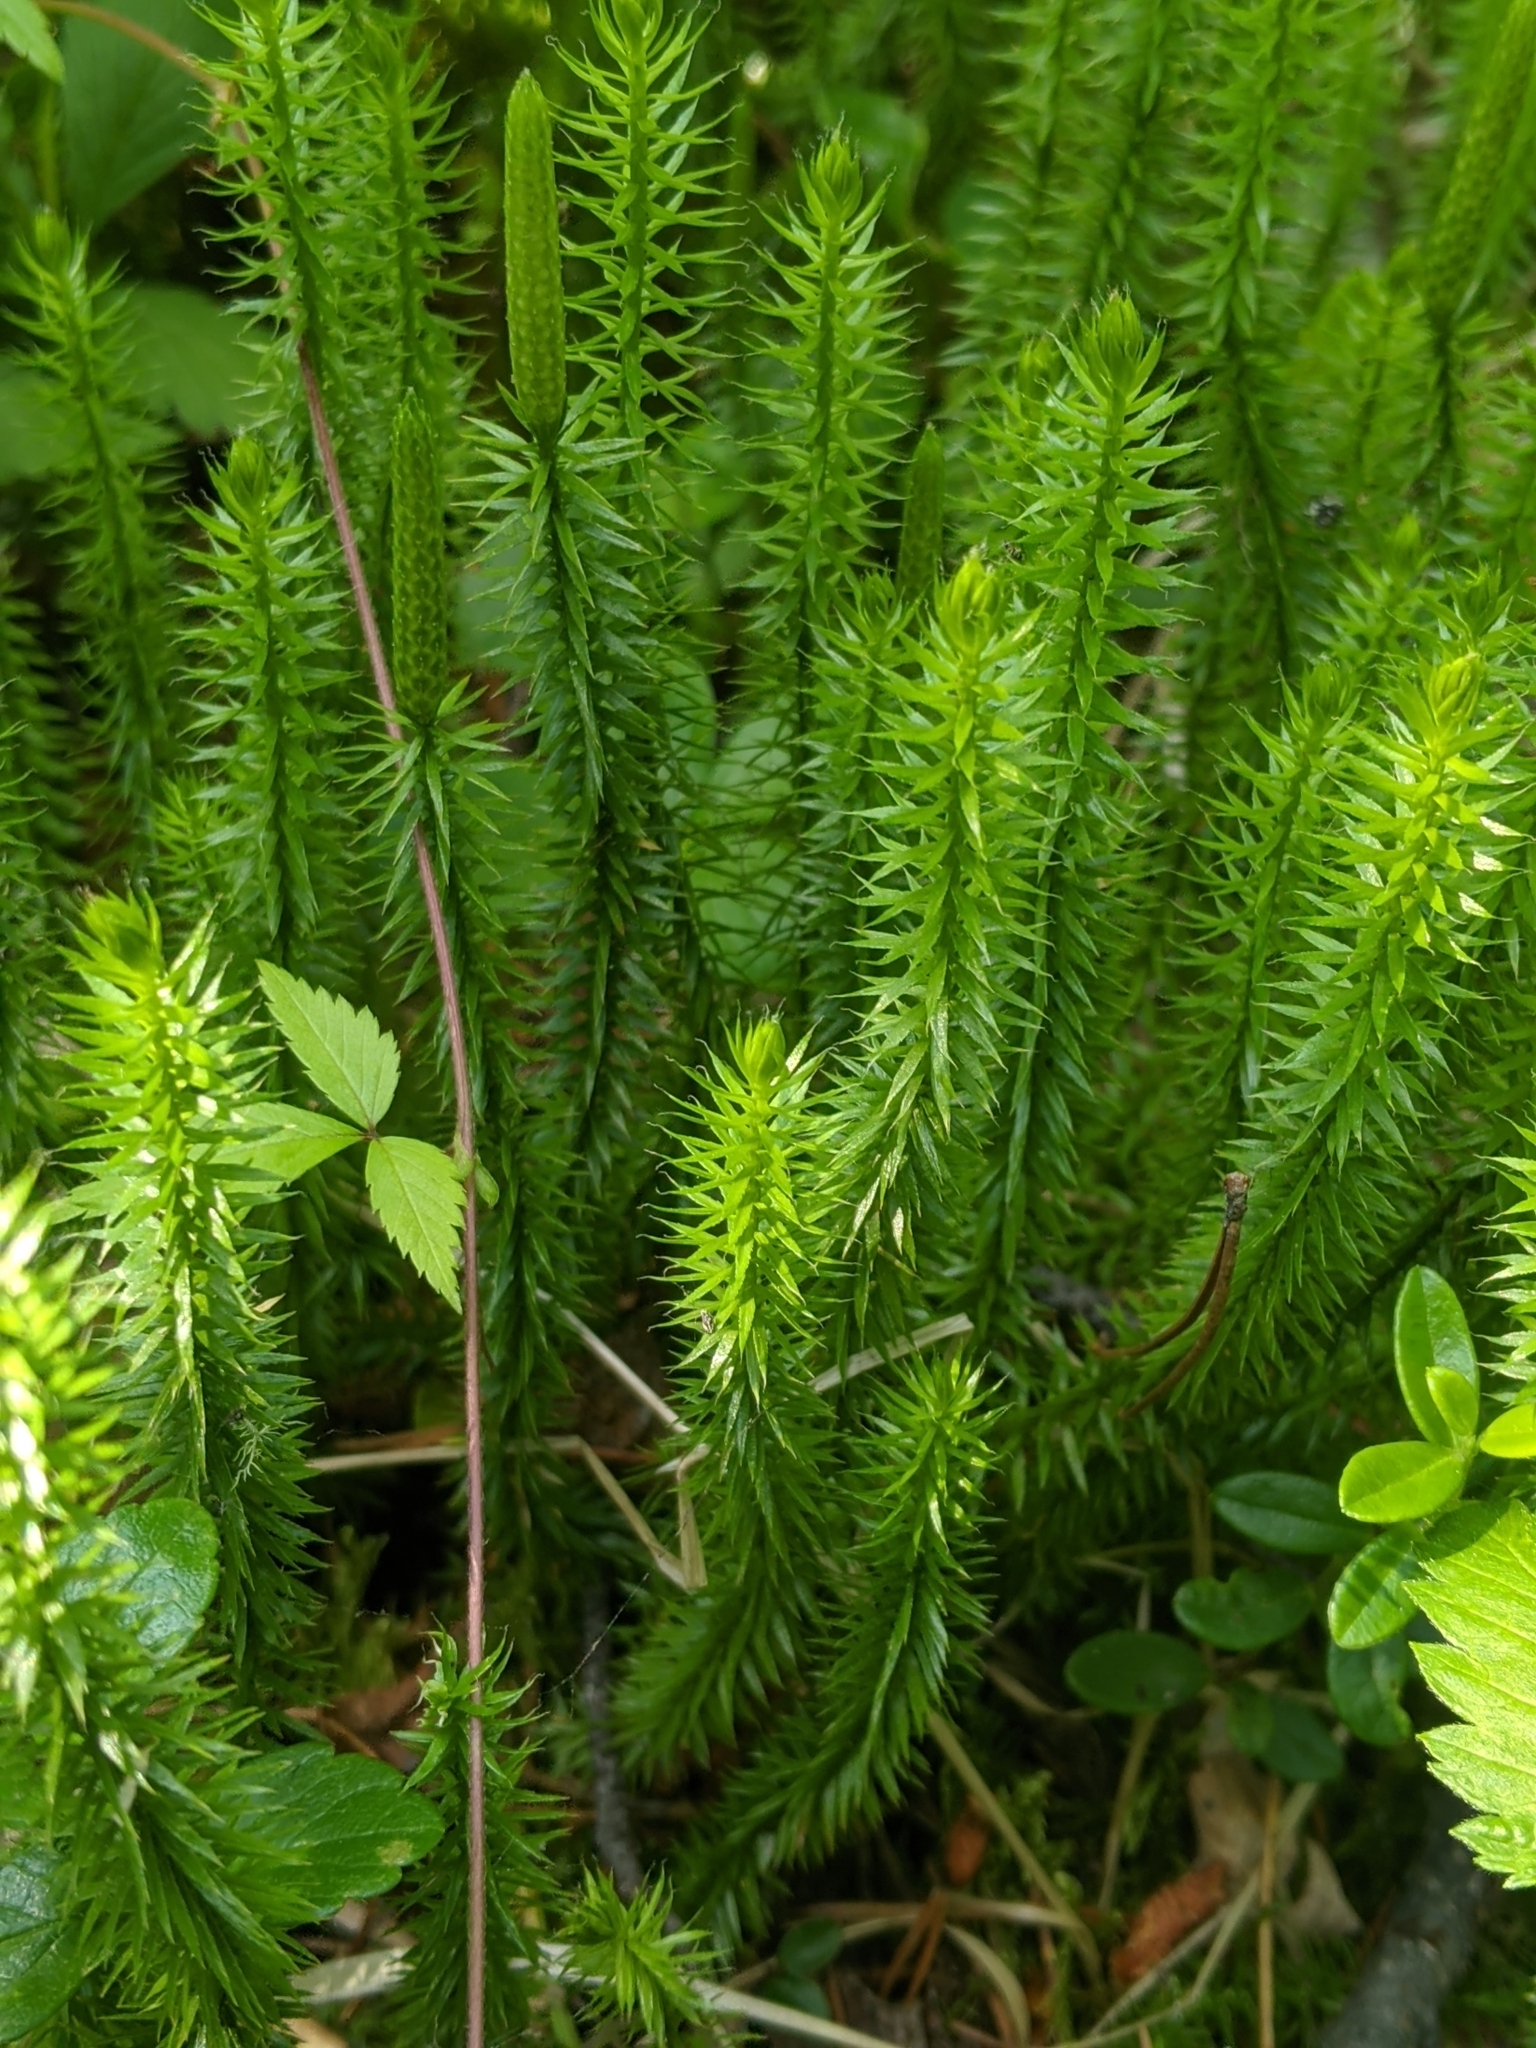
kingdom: Plantae
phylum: Tracheophyta
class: Lycopodiopsida
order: Lycopodiales
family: Lycopodiaceae
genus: Spinulum
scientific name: Spinulum annotinum
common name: Interrupted club-moss
